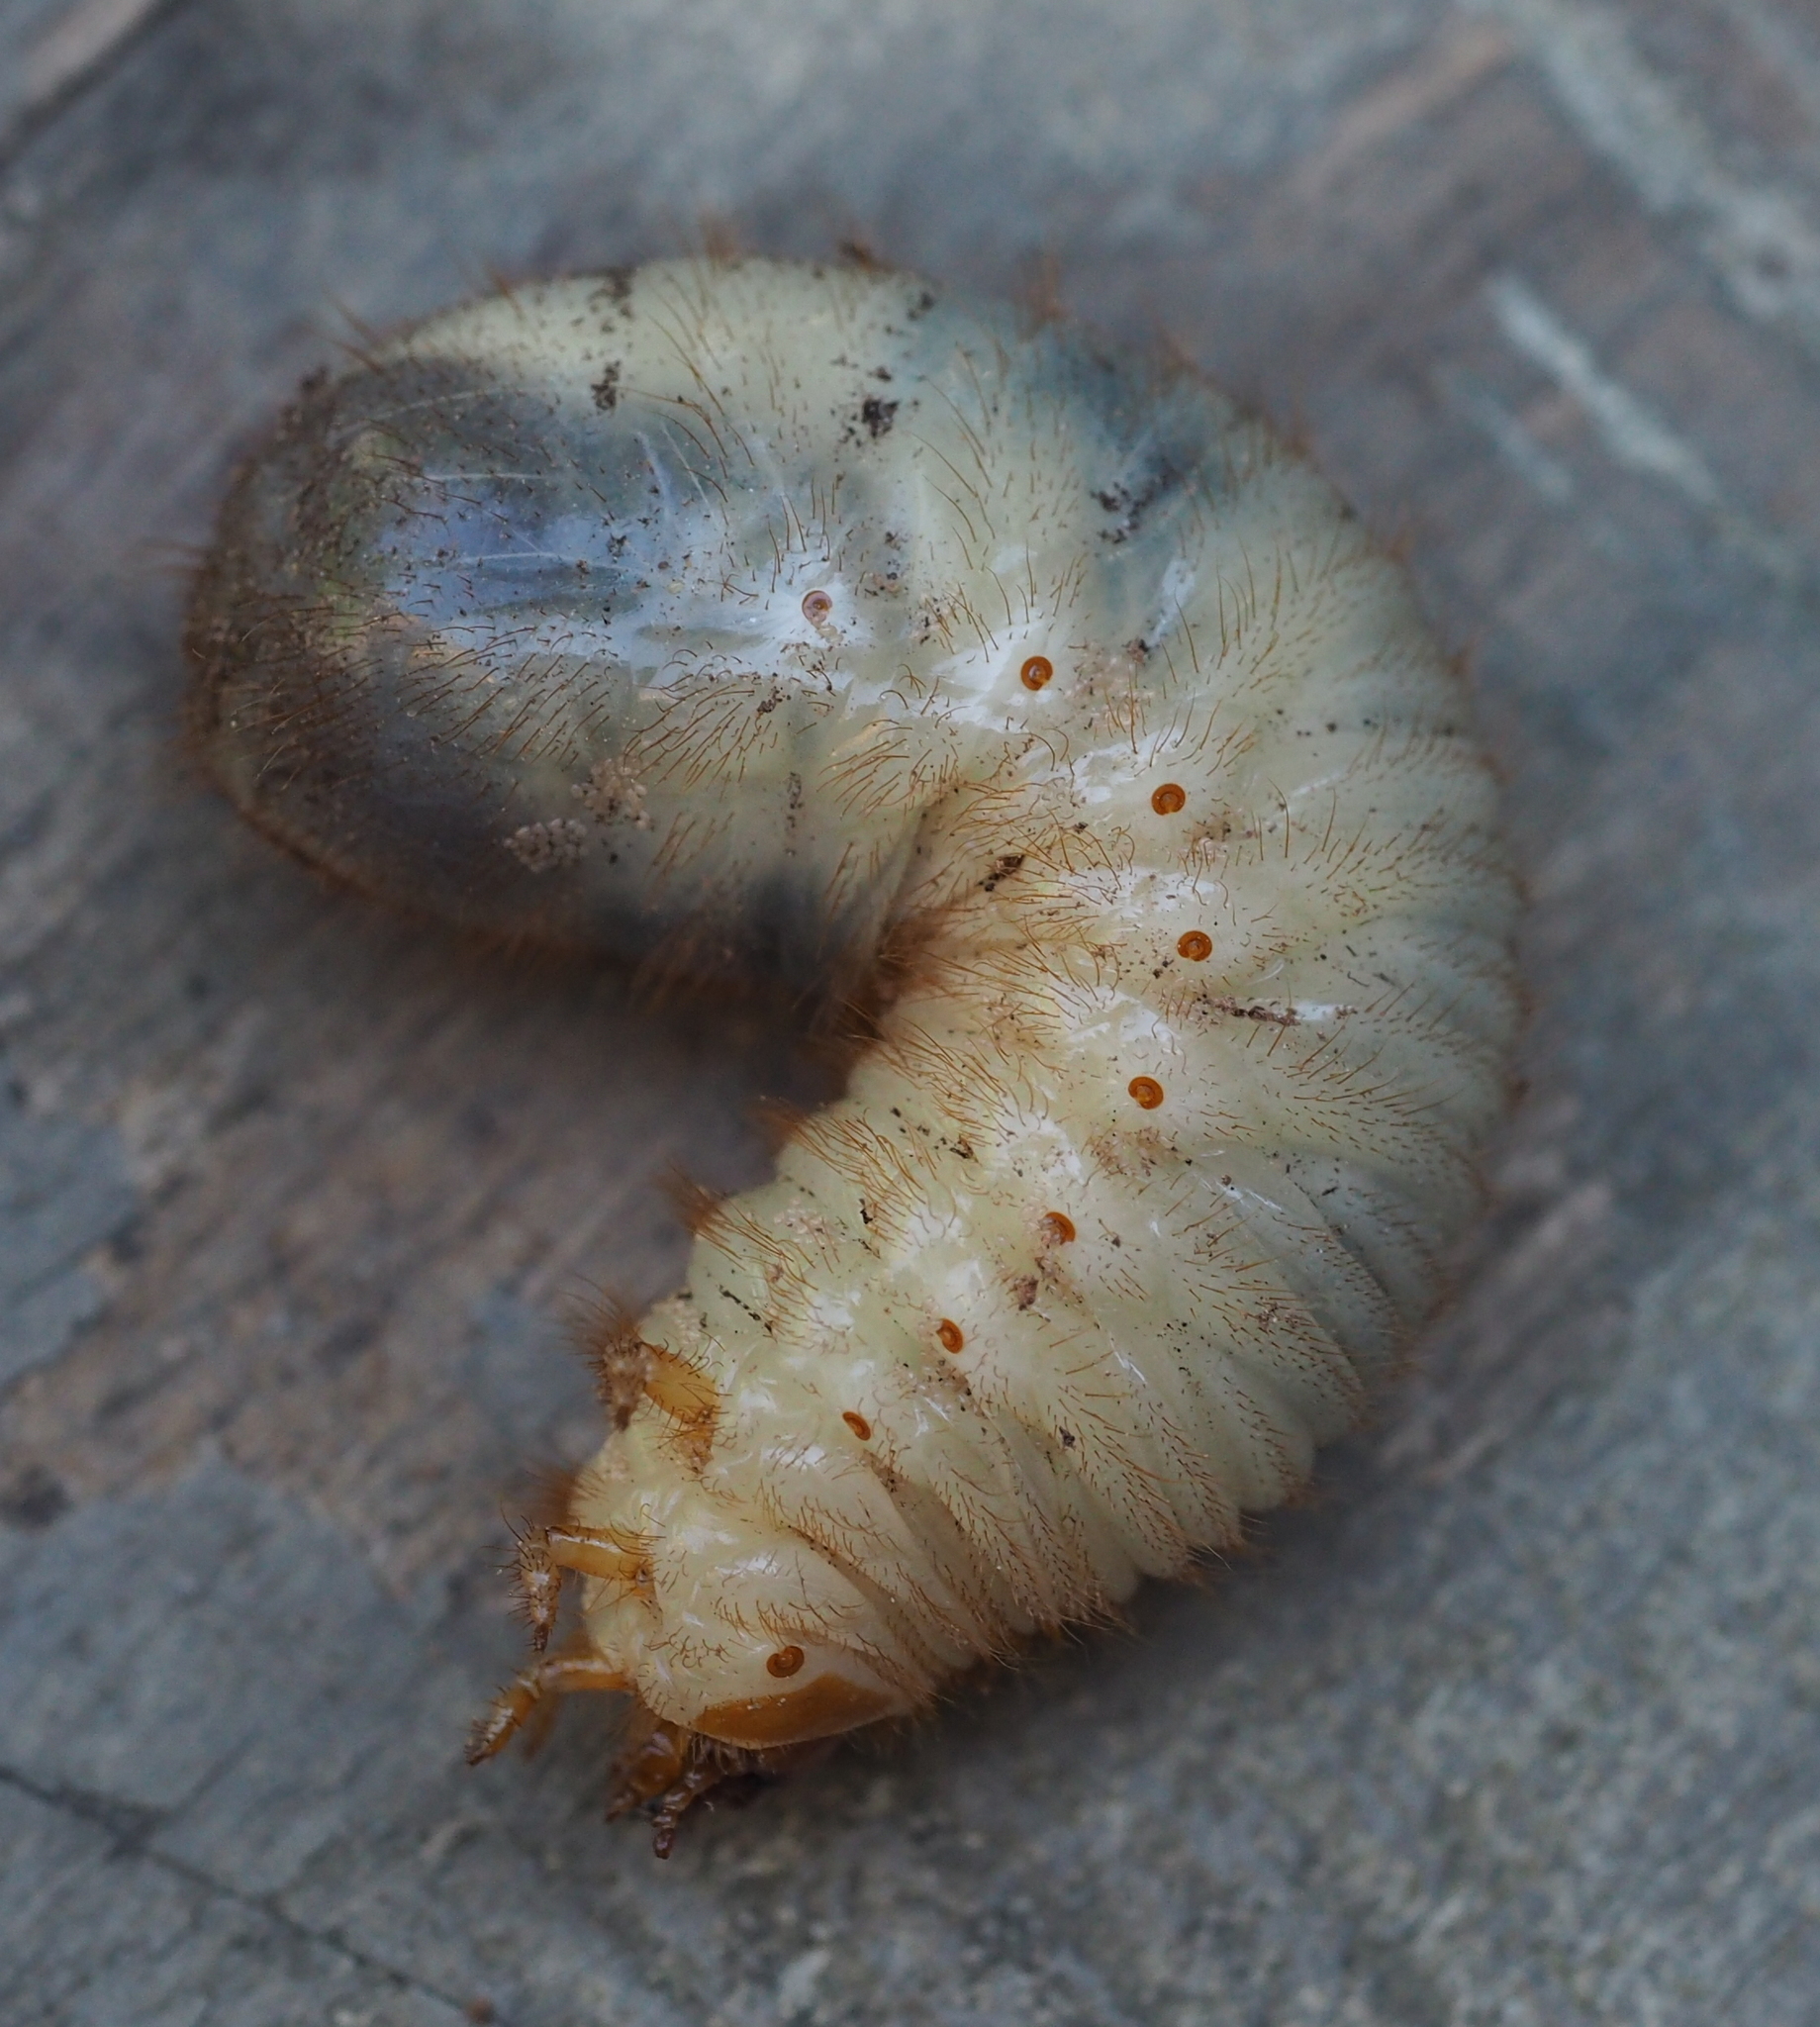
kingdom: Animalia
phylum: Arthropoda
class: Insecta
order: Coleoptera
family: Scarabaeidae
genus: Cetonia
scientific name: Cetonia aurata
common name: Rose chafer
